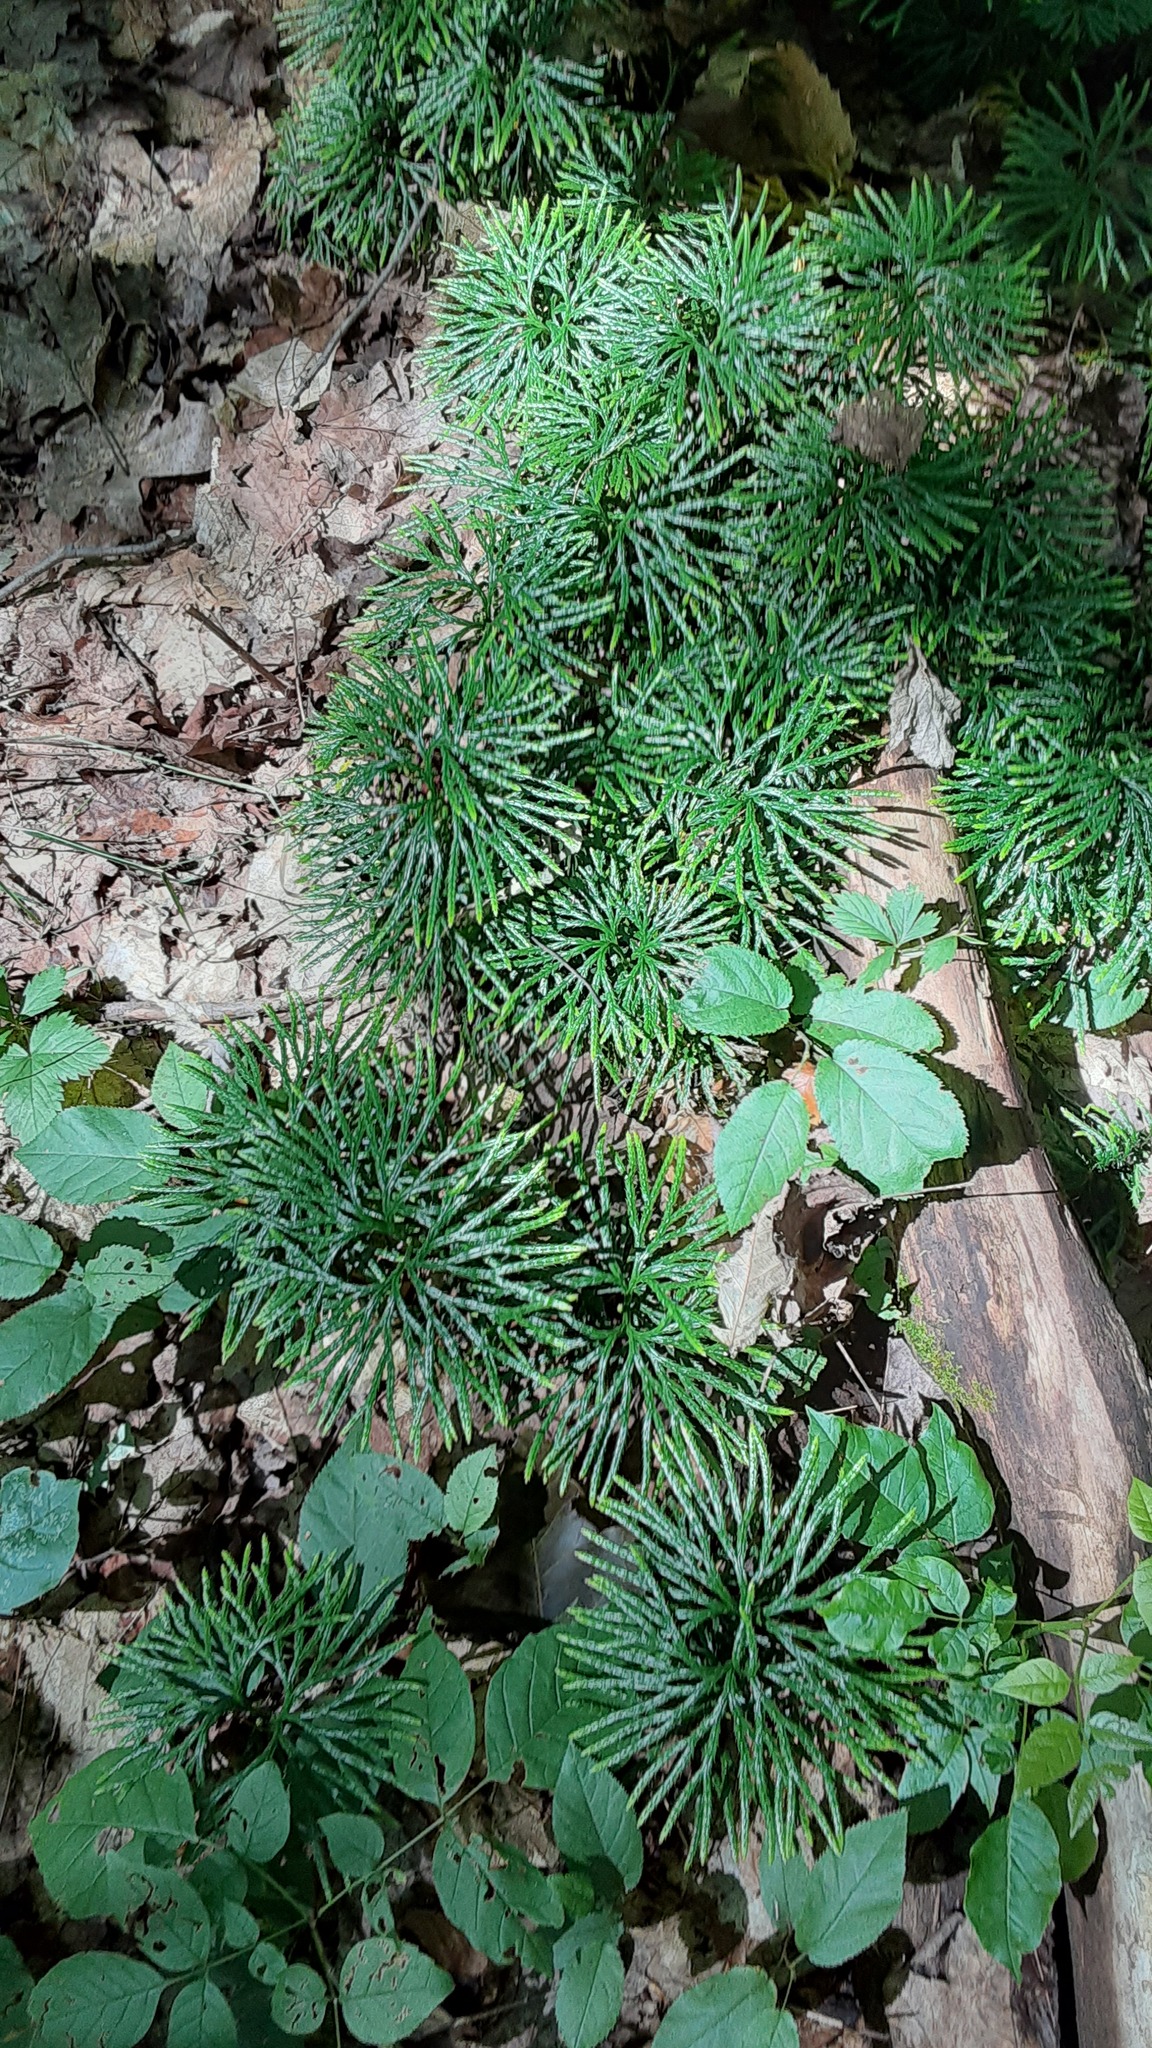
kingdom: Plantae
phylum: Tracheophyta
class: Lycopodiopsida
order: Lycopodiales
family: Lycopodiaceae
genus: Diphasiastrum
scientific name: Diphasiastrum digitatum
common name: Southern running-pine
